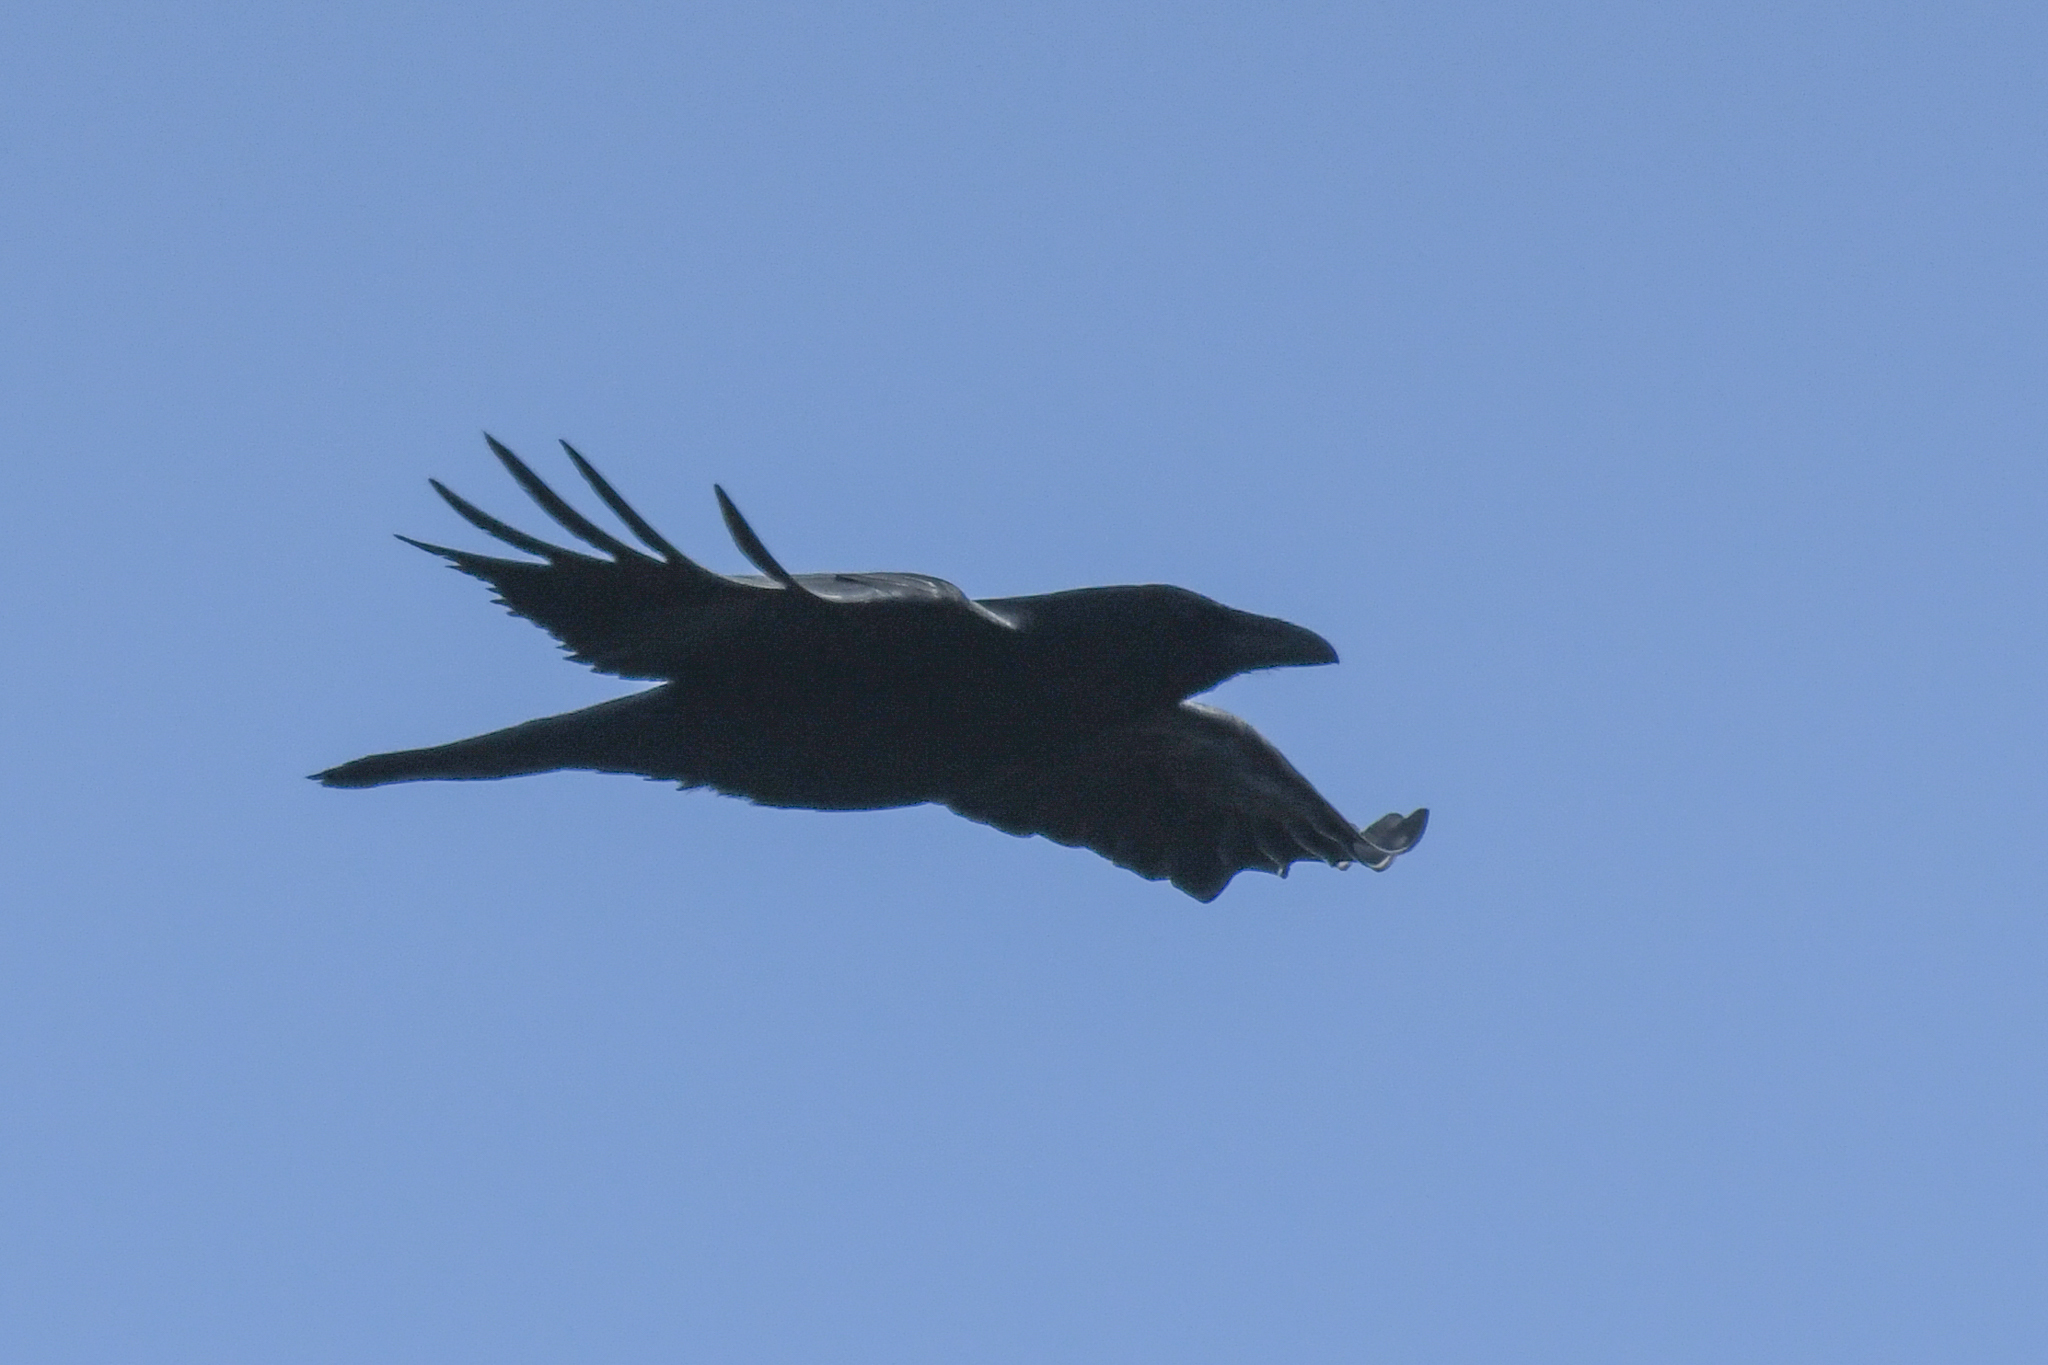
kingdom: Animalia
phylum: Chordata
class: Aves
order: Passeriformes
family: Corvidae
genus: Corvus
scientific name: Corvus corax
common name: Common raven
